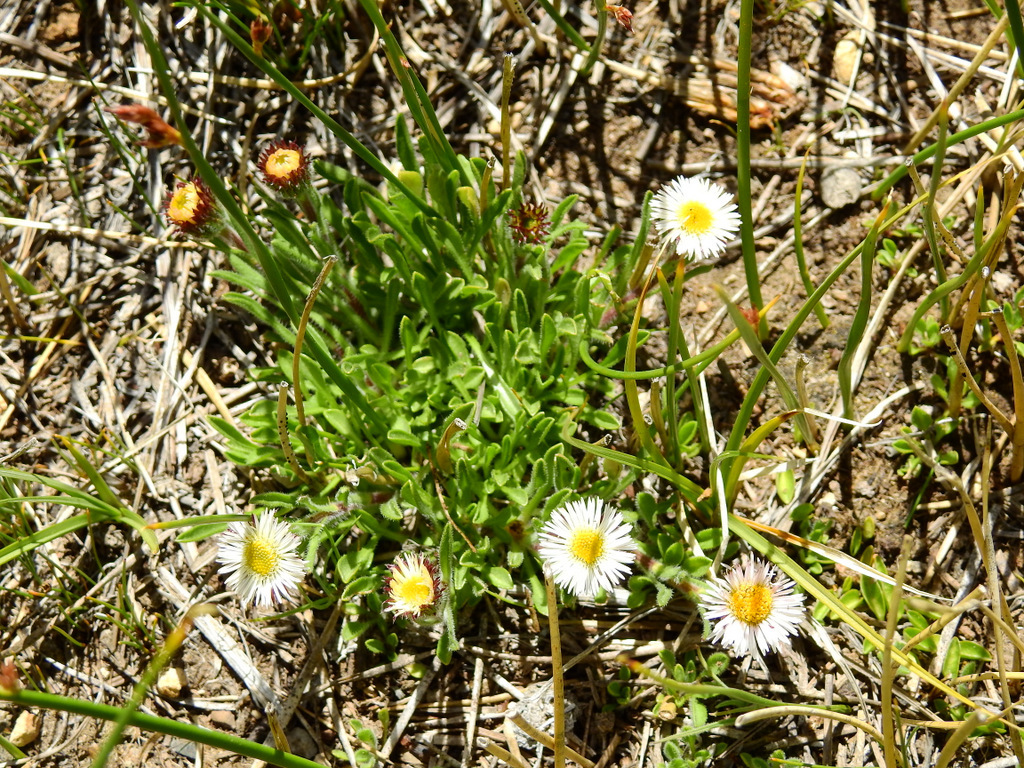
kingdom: Plantae
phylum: Tracheophyta
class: Magnoliopsida
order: Asterales
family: Asteraceae
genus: Erigeron
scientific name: Erigeron patagonicus
